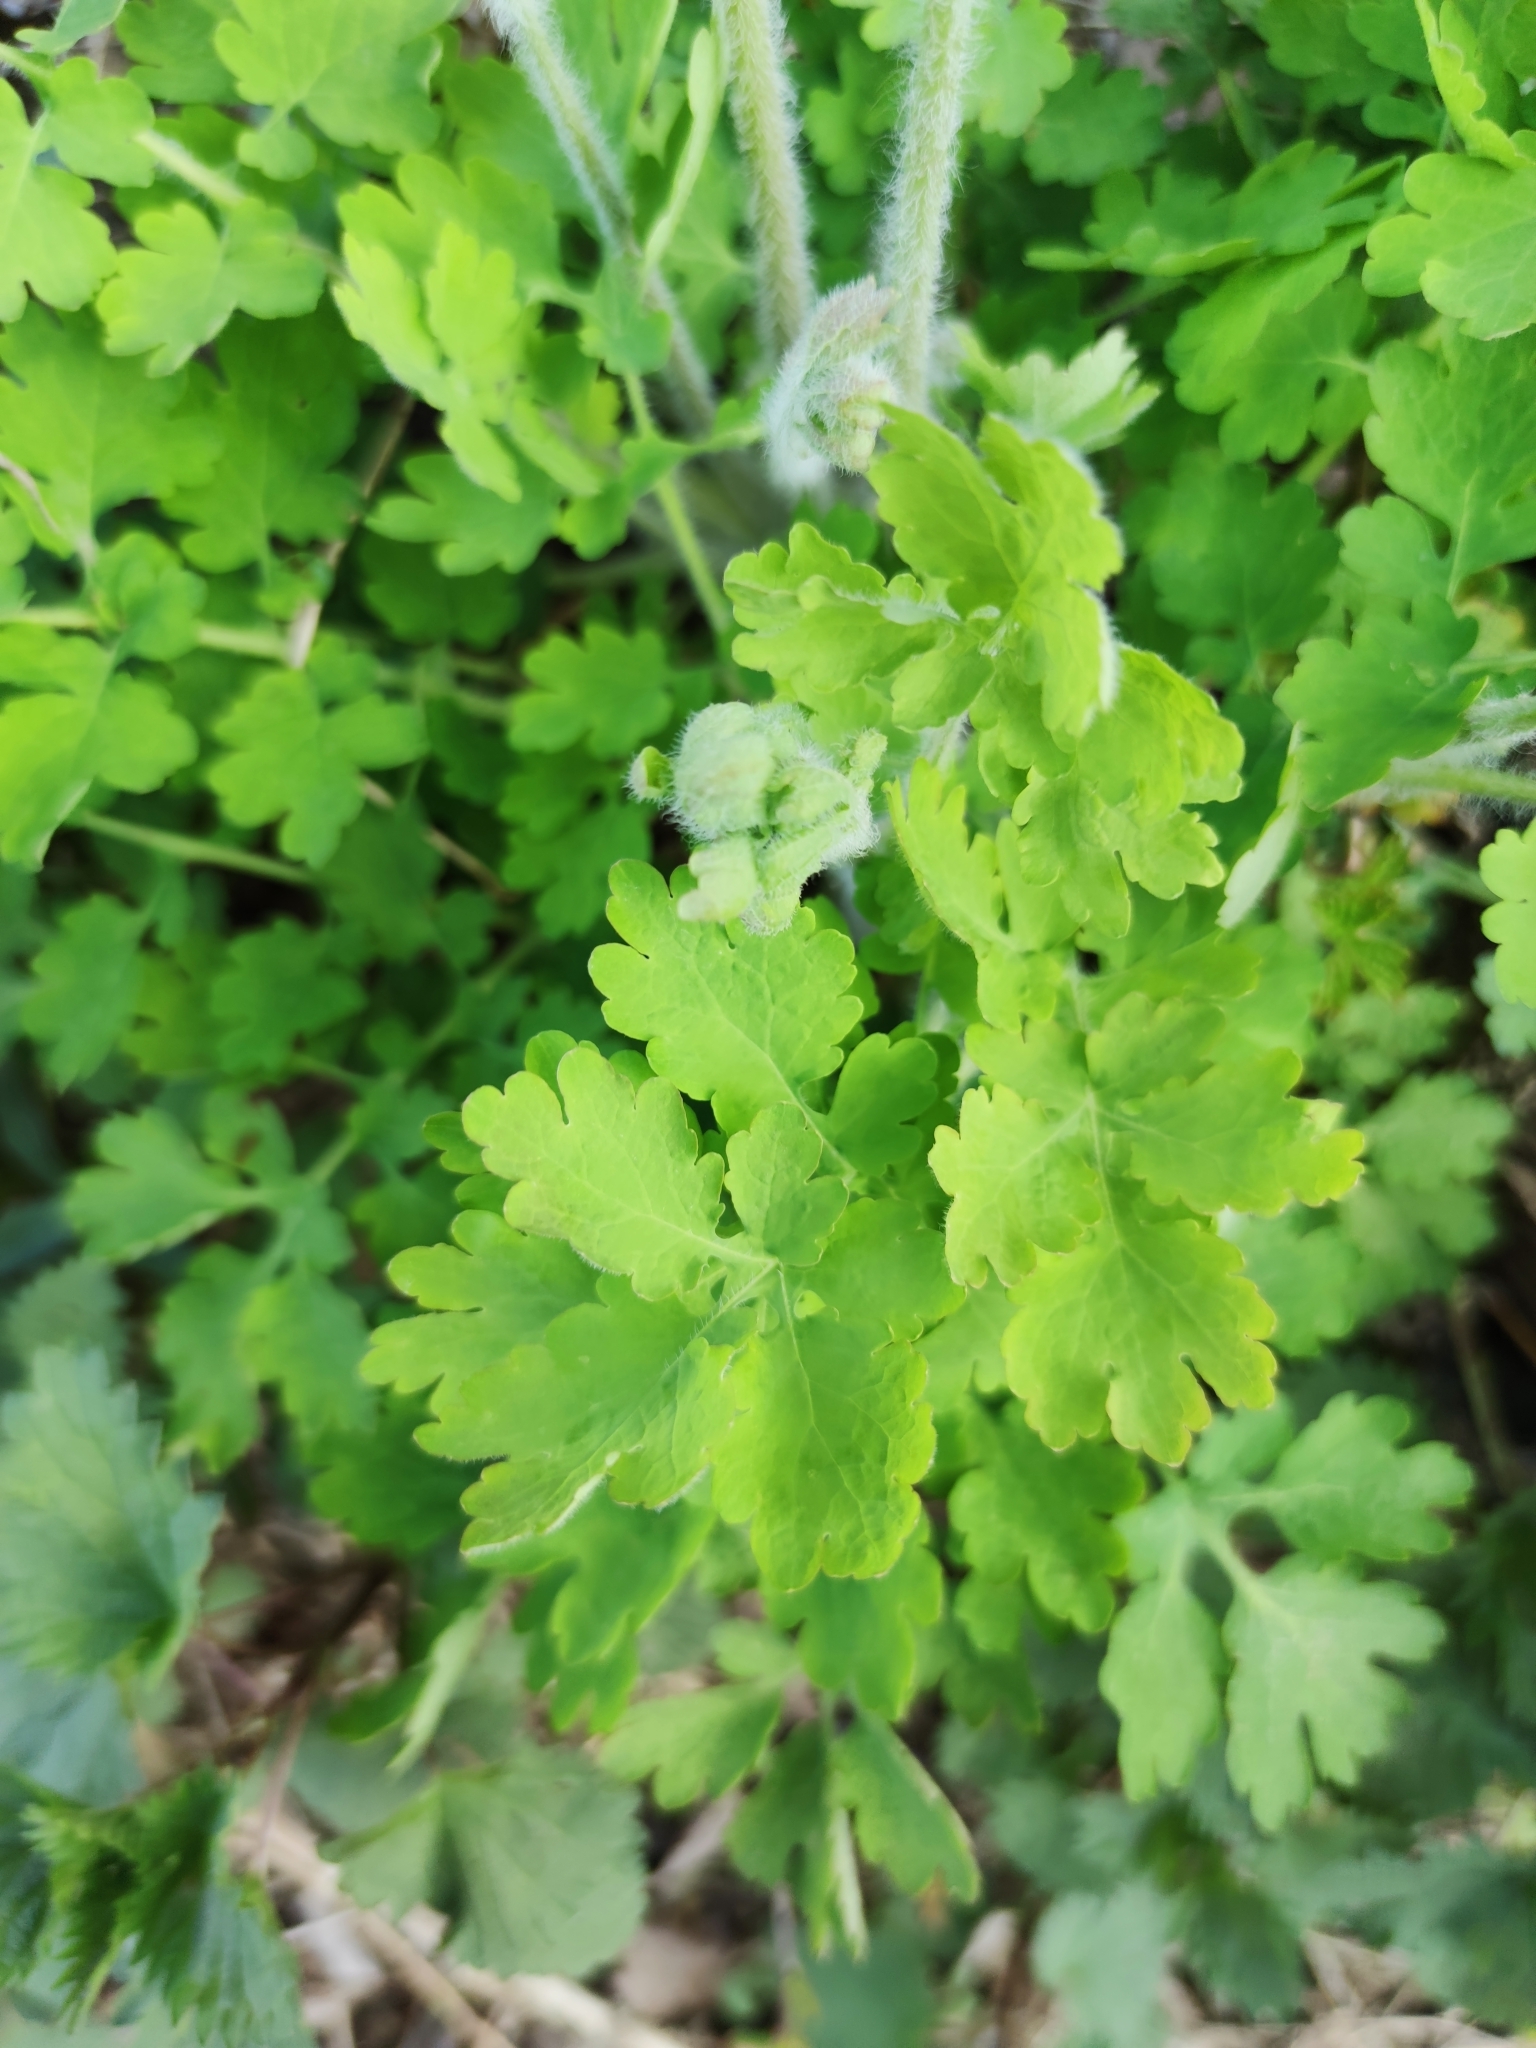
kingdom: Plantae
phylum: Tracheophyta
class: Magnoliopsida
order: Ranunculales
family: Papaveraceae
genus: Chelidonium
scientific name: Chelidonium majus
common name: Greater celandine
